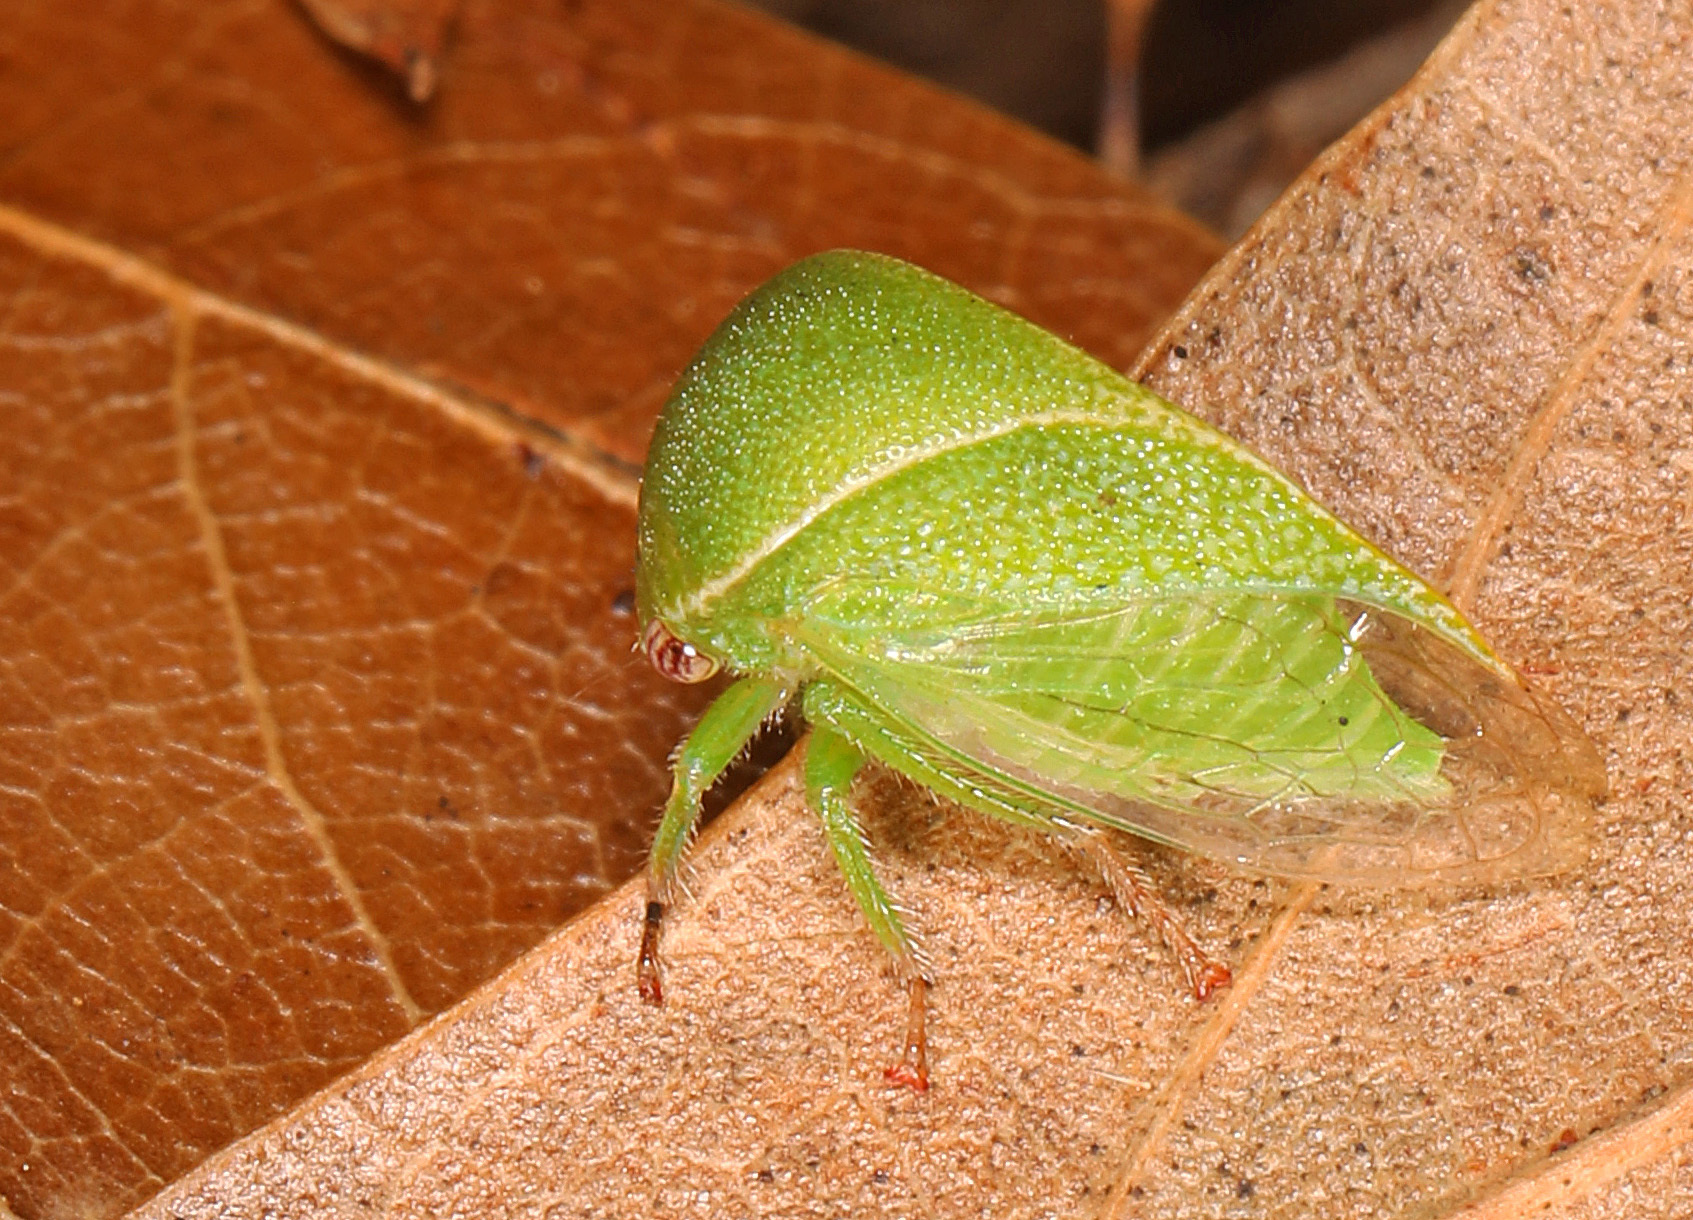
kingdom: Animalia
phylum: Arthropoda
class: Insecta
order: Hemiptera
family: Membracidae
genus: Spissistilus
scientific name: Spissistilus festina
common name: Membracid bug
